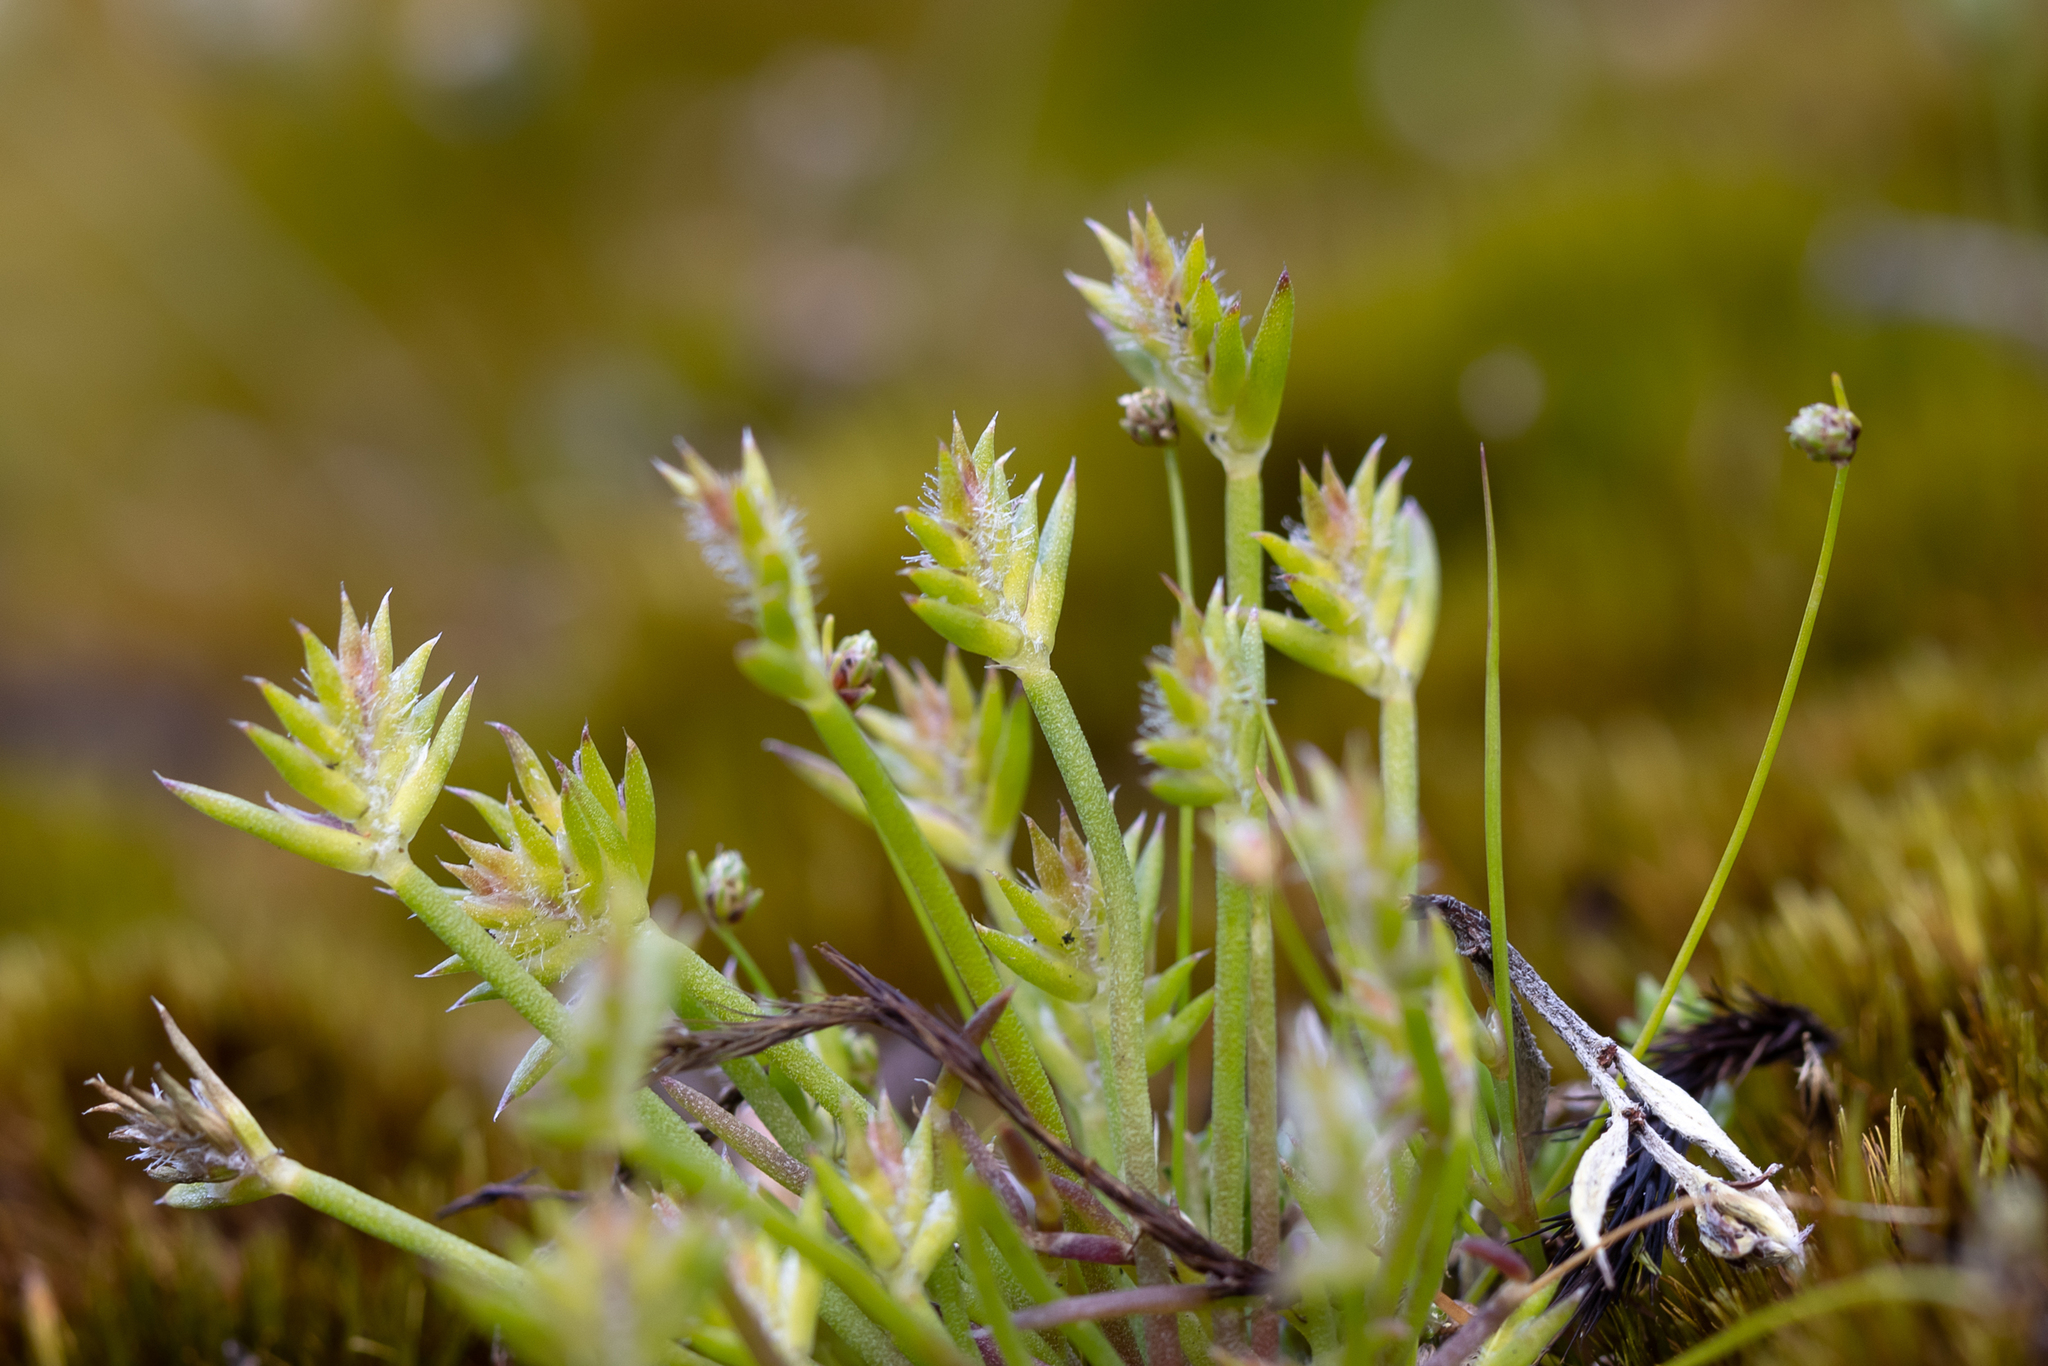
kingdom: Plantae
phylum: Tracheophyta
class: Liliopsida
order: Poales
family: Restionaceae
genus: Aphelia
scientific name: Aphelia cyperoides
